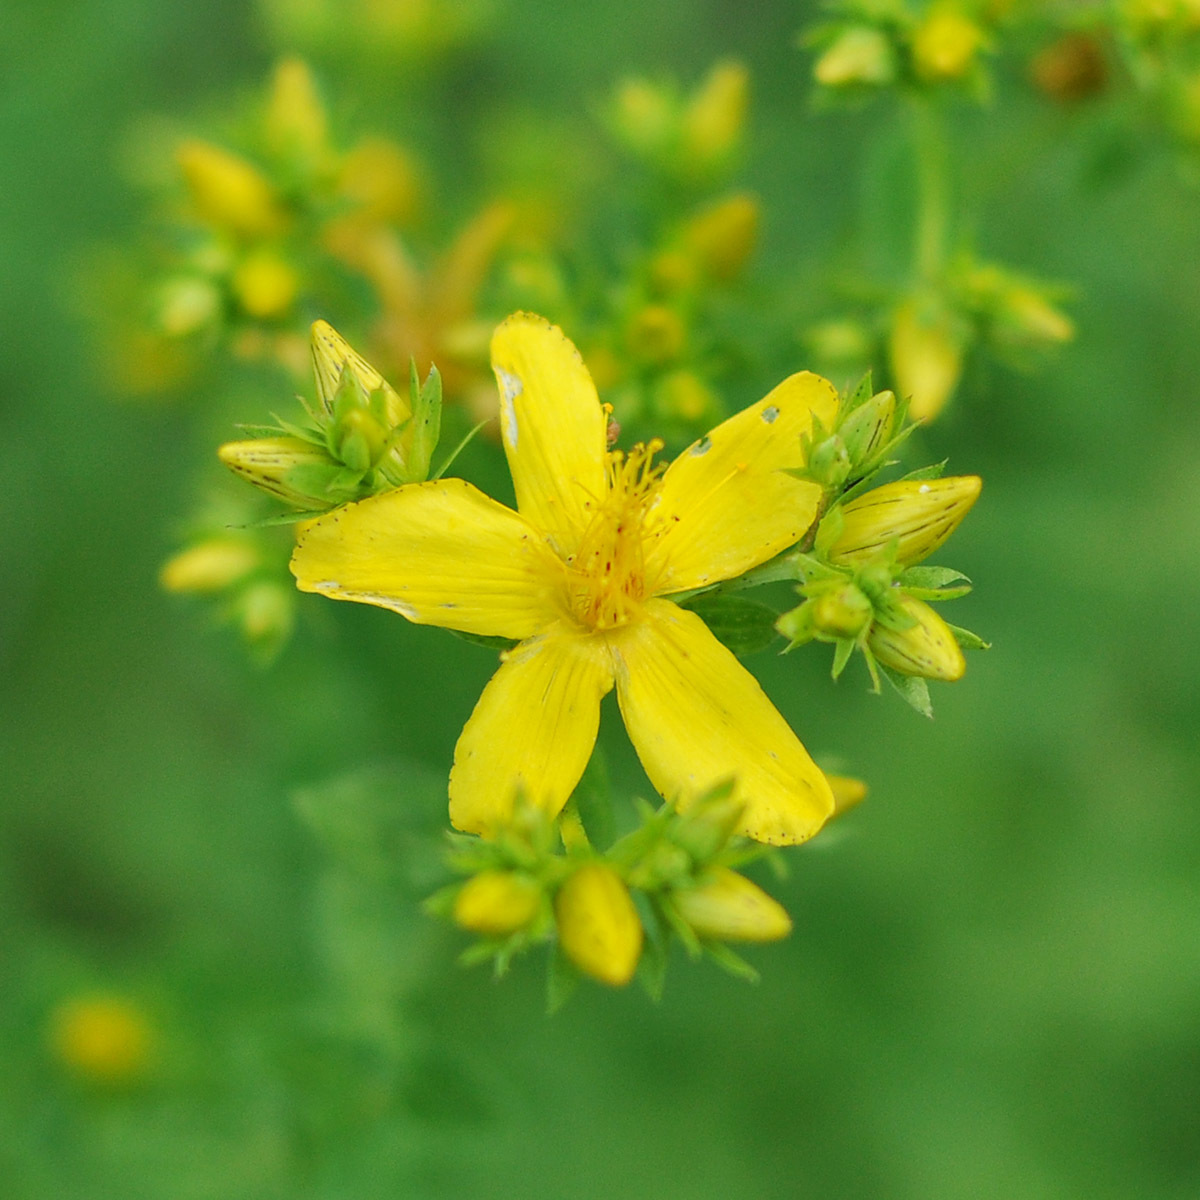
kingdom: Plantae
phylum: Tracheophyta
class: Magnoliopsida
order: Malpighiales
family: Hypericaceae
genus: Hypericum
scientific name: Hypericum perforatum
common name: Common st. johnswort
